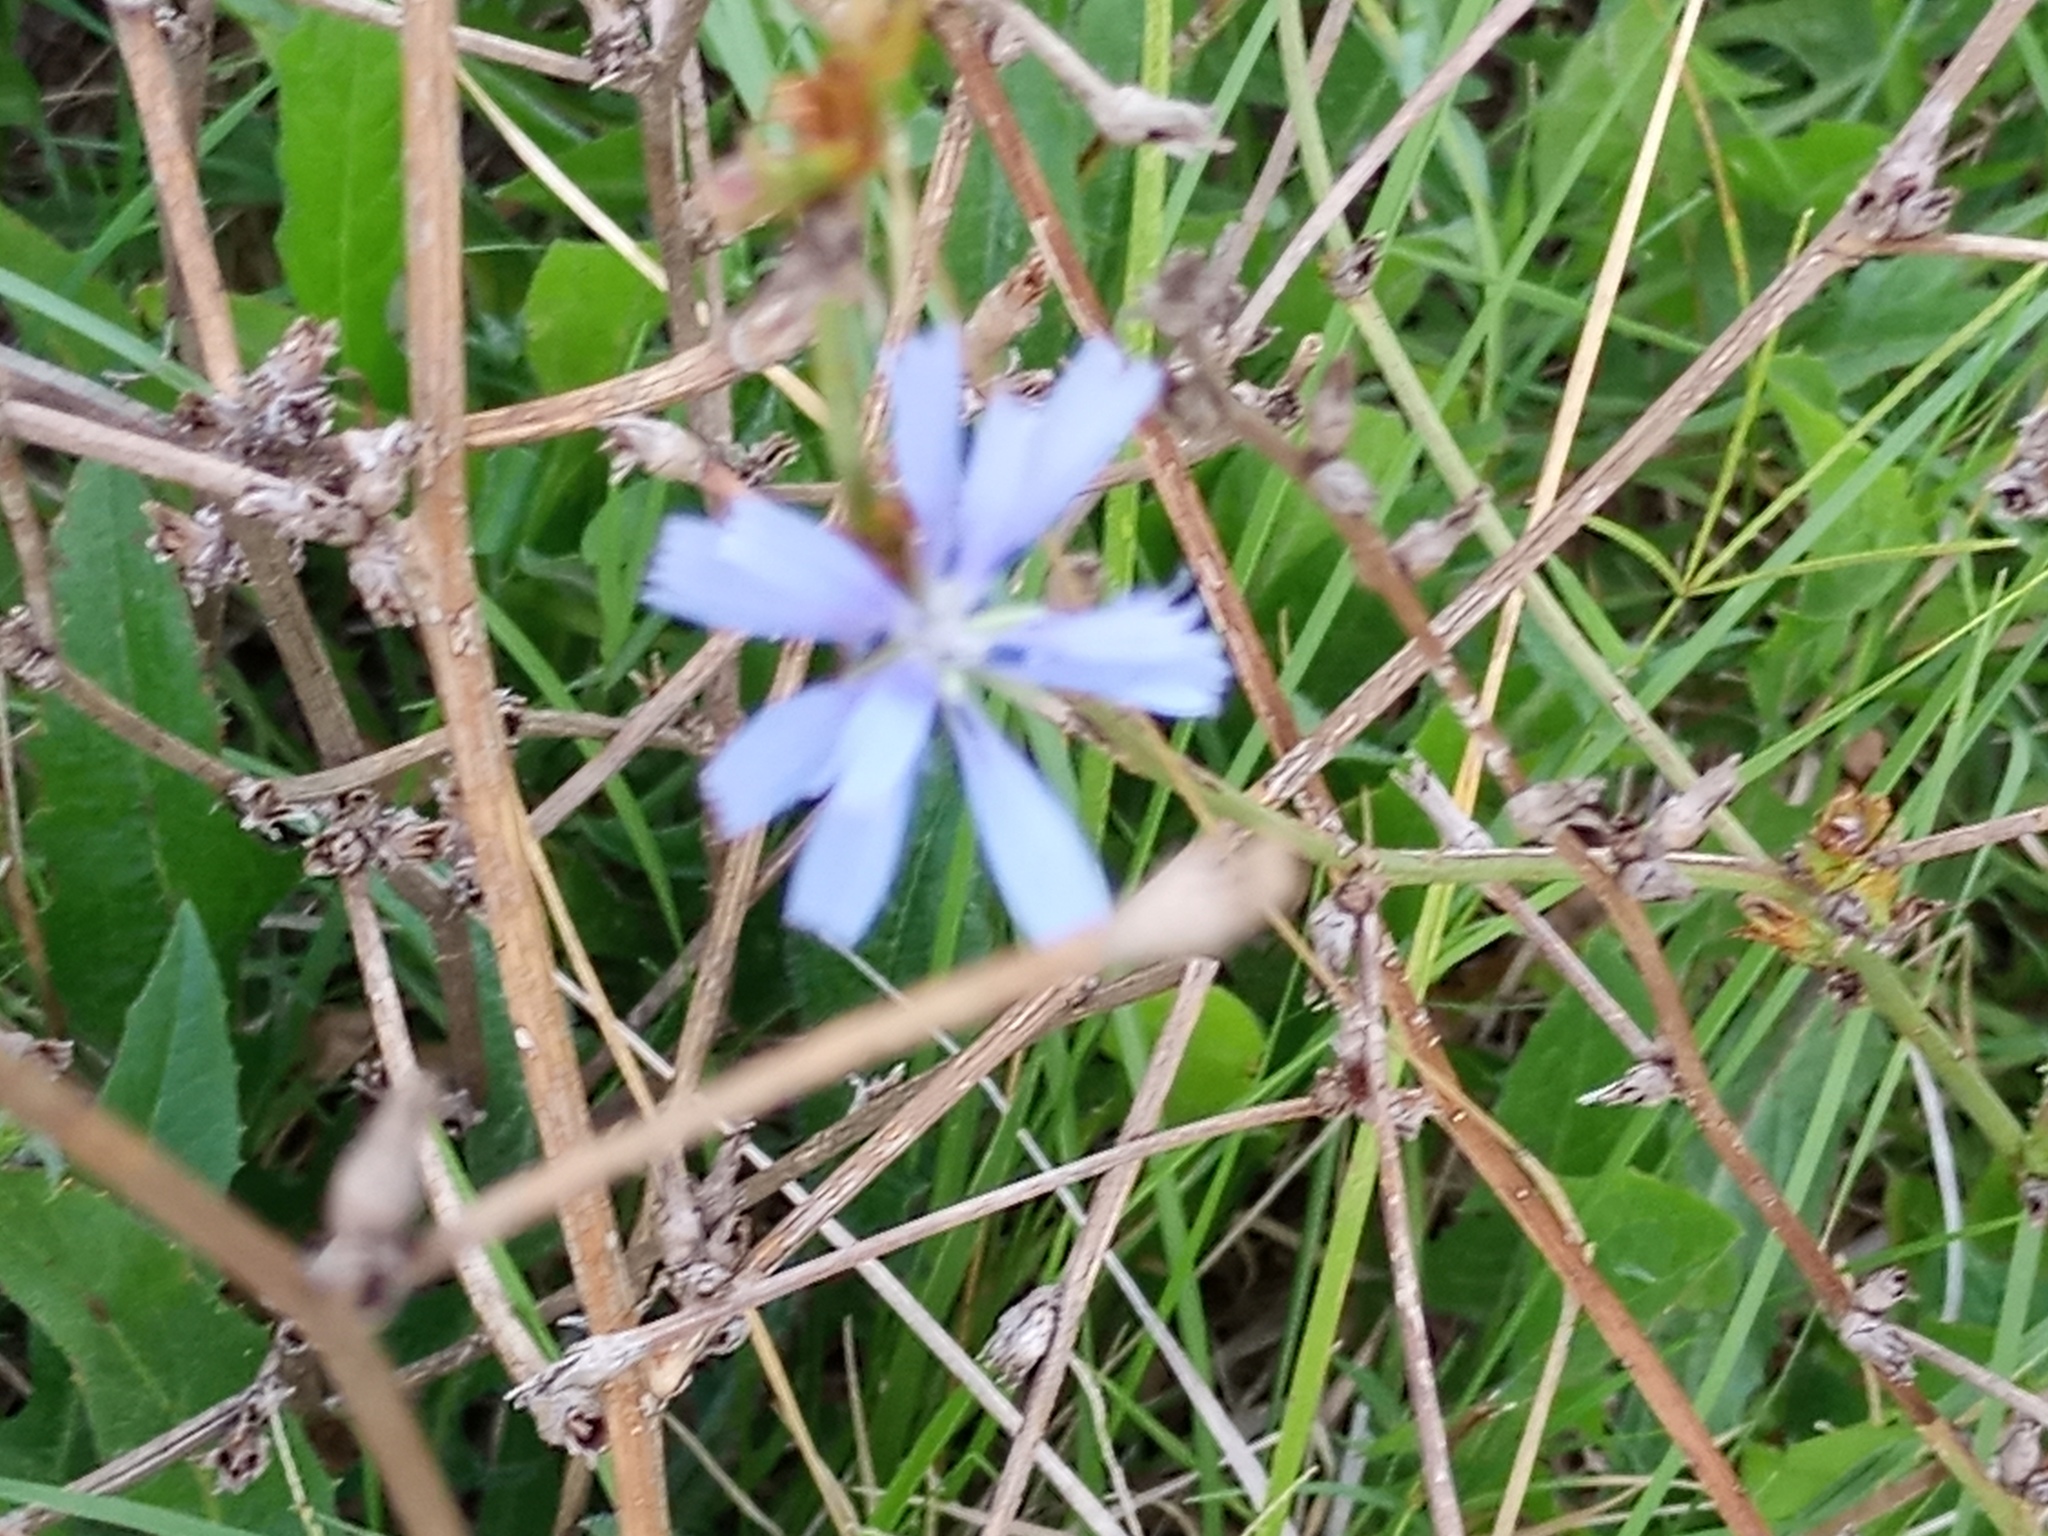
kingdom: Plantae
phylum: Tracheophyta
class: Magnoliopsida
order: Asterales
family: Asteraceae
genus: Cichorium
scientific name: Cichorium intybus
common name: Chicory
